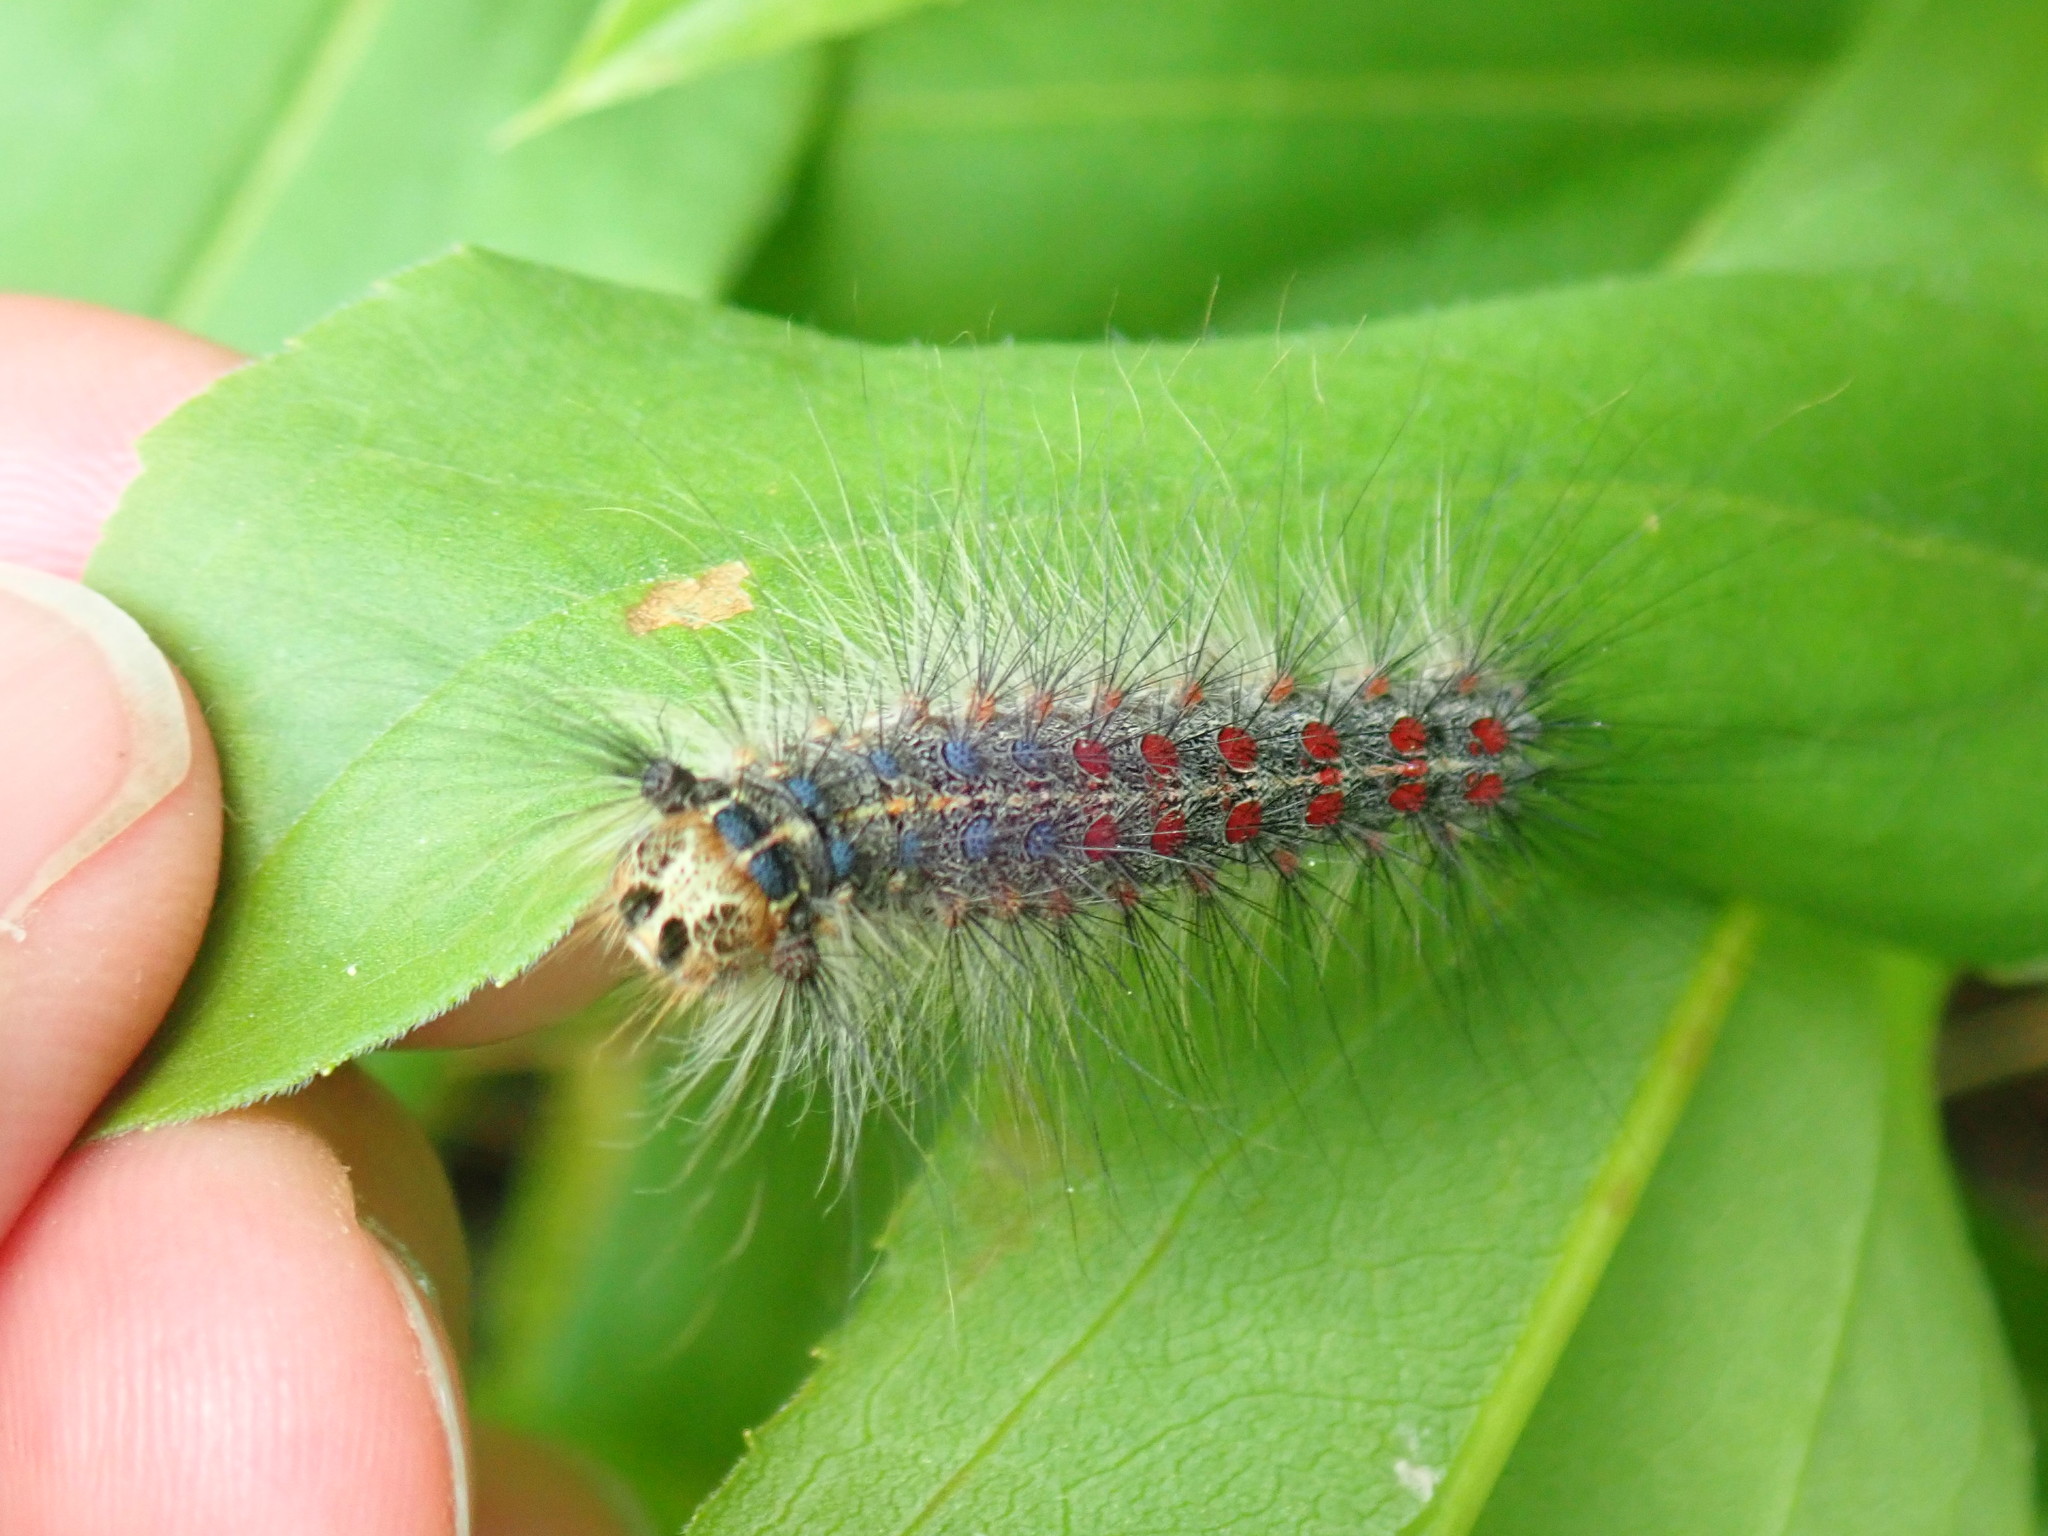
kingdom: Animalia
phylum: Arthropoda
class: Insecta
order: Lepidoptera
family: Erebidae
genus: Lymantria
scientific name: Lymantria dispar
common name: Gypsy moth
